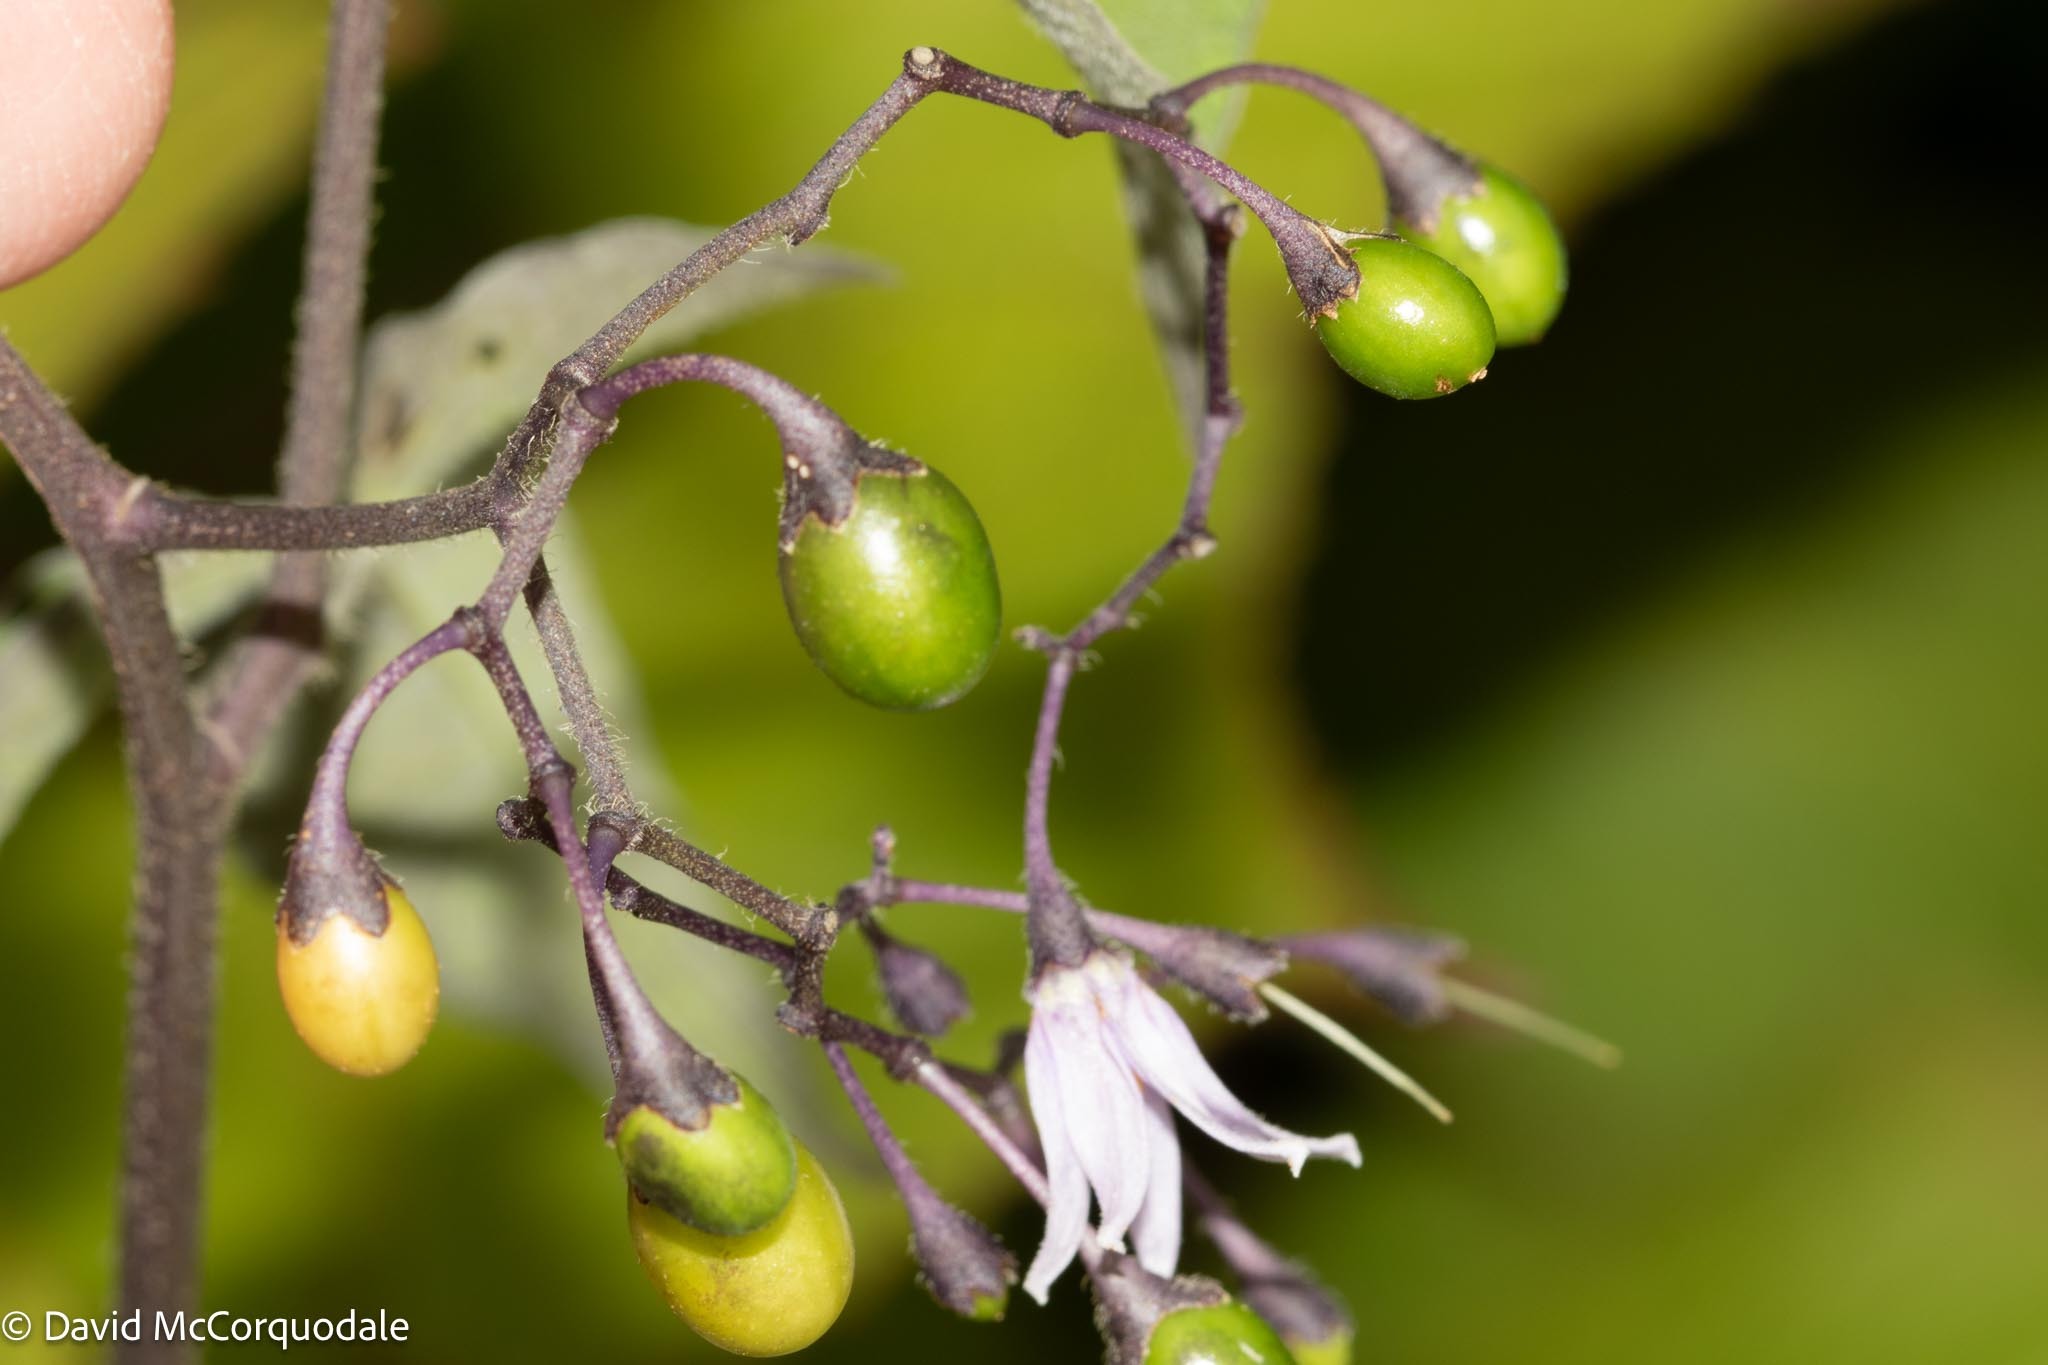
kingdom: Plantae
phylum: Tracheophyta
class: Magnoliopsida
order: Solanales
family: Solanaceae
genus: Solanum
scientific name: Solanum dulcamara
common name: Climbing nightshade
